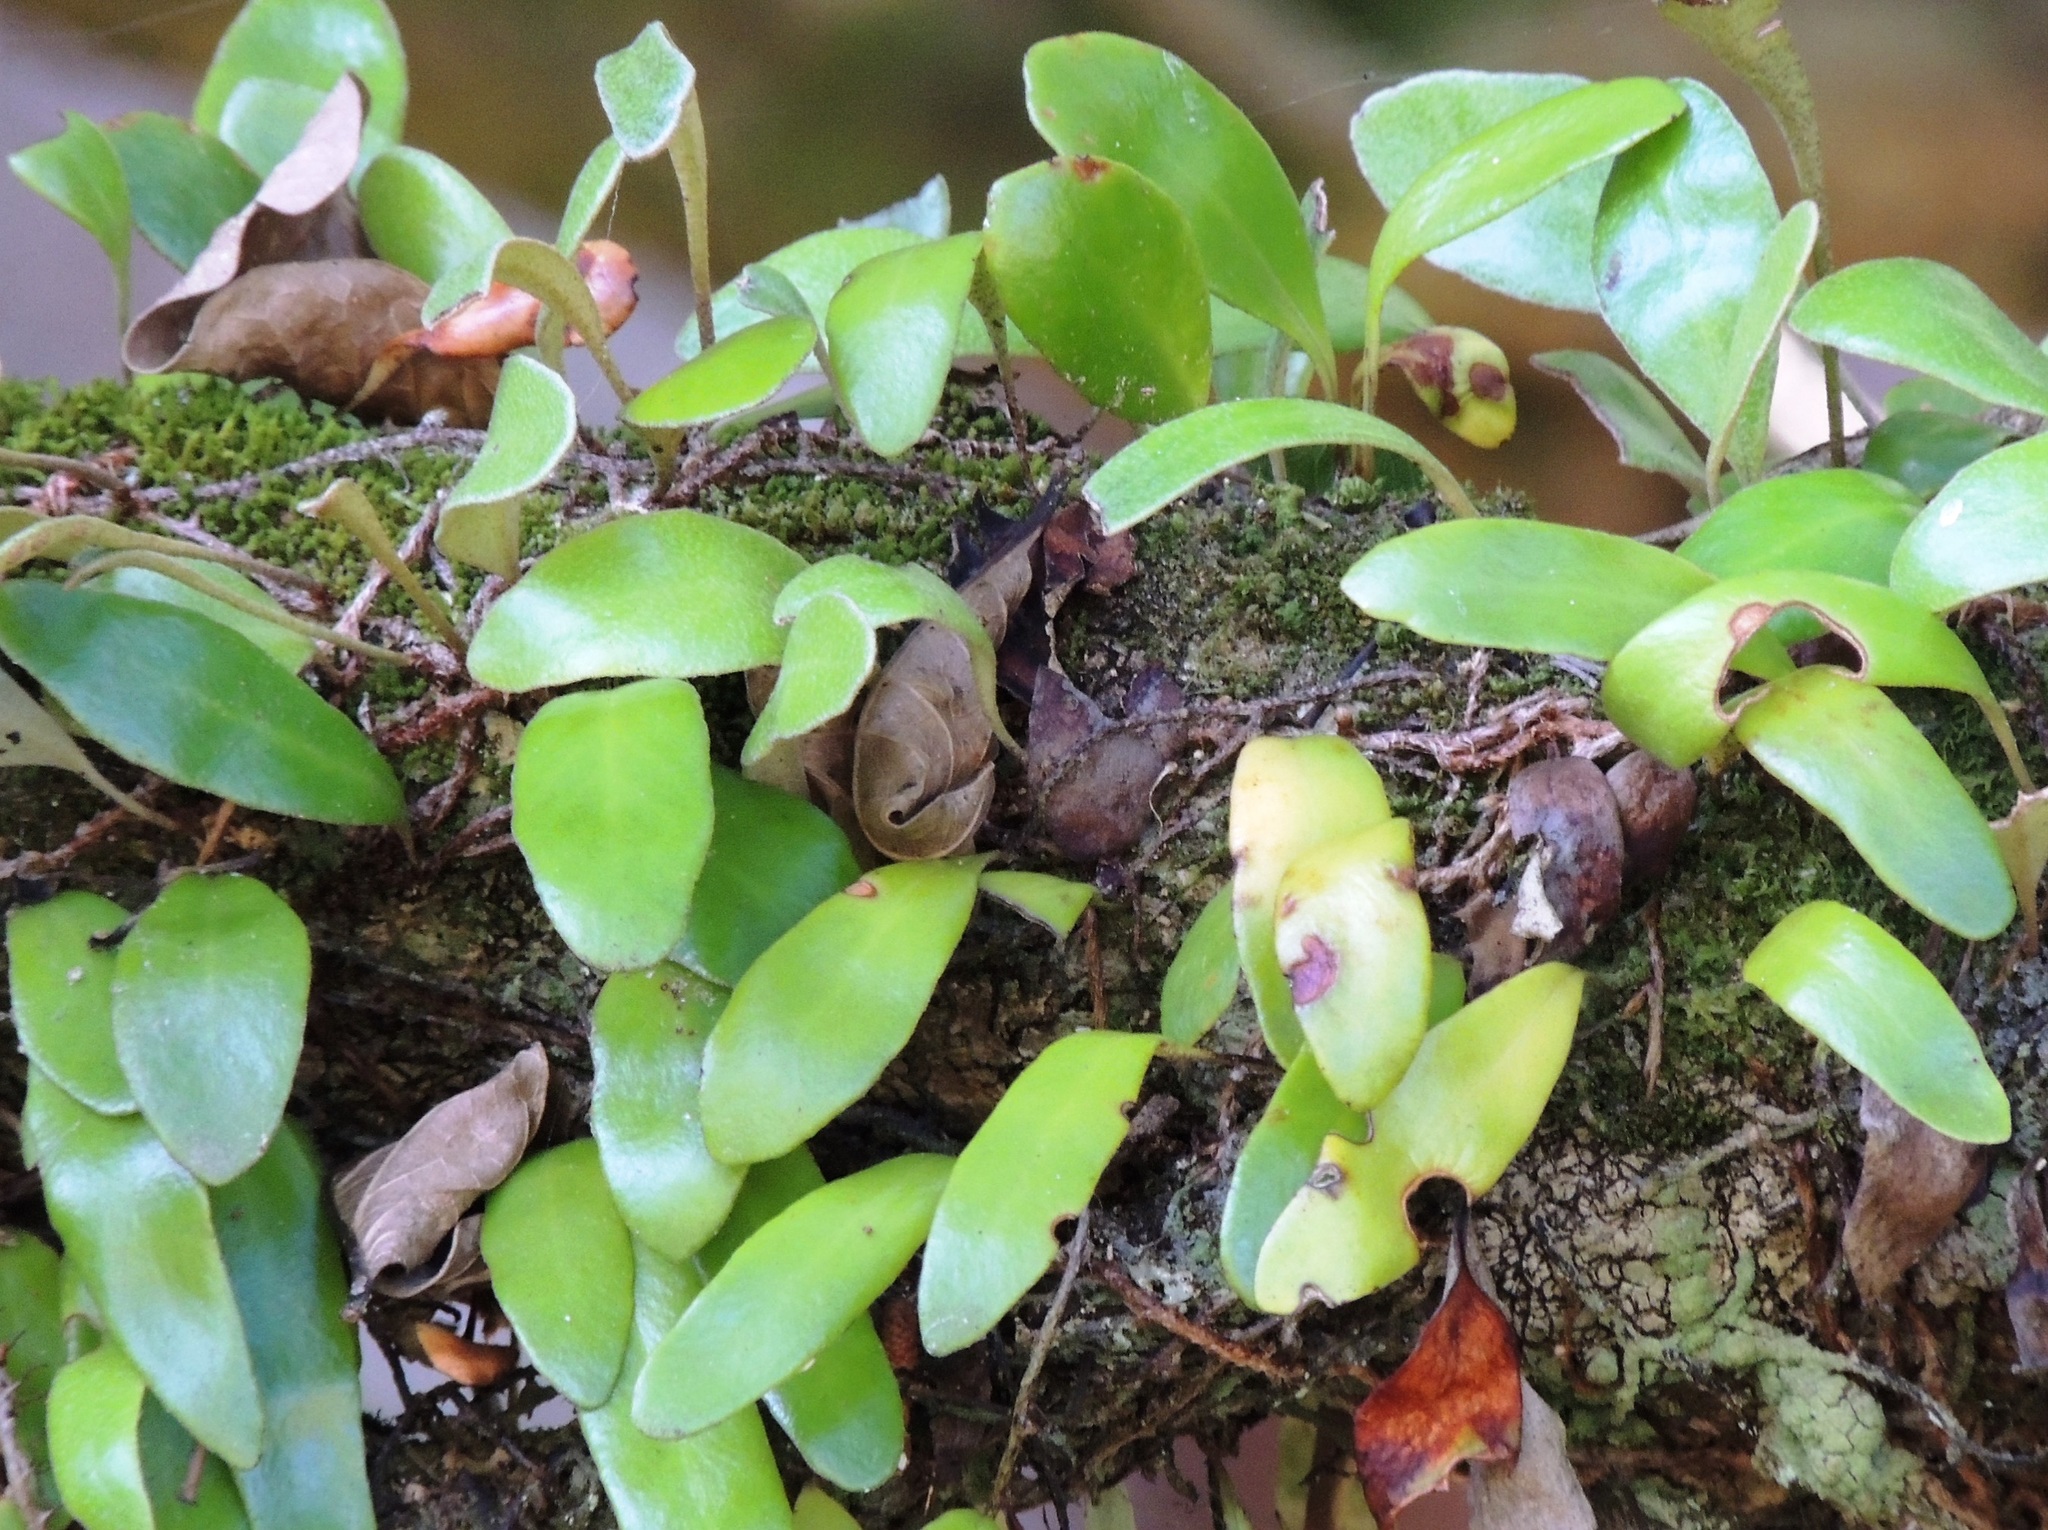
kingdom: Plantae
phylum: Tracheophyta
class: Polypodiopsida
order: Polypodiales
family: Polypodiaceae
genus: Pyrrosia
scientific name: Pyrrosia eleagnifolia
